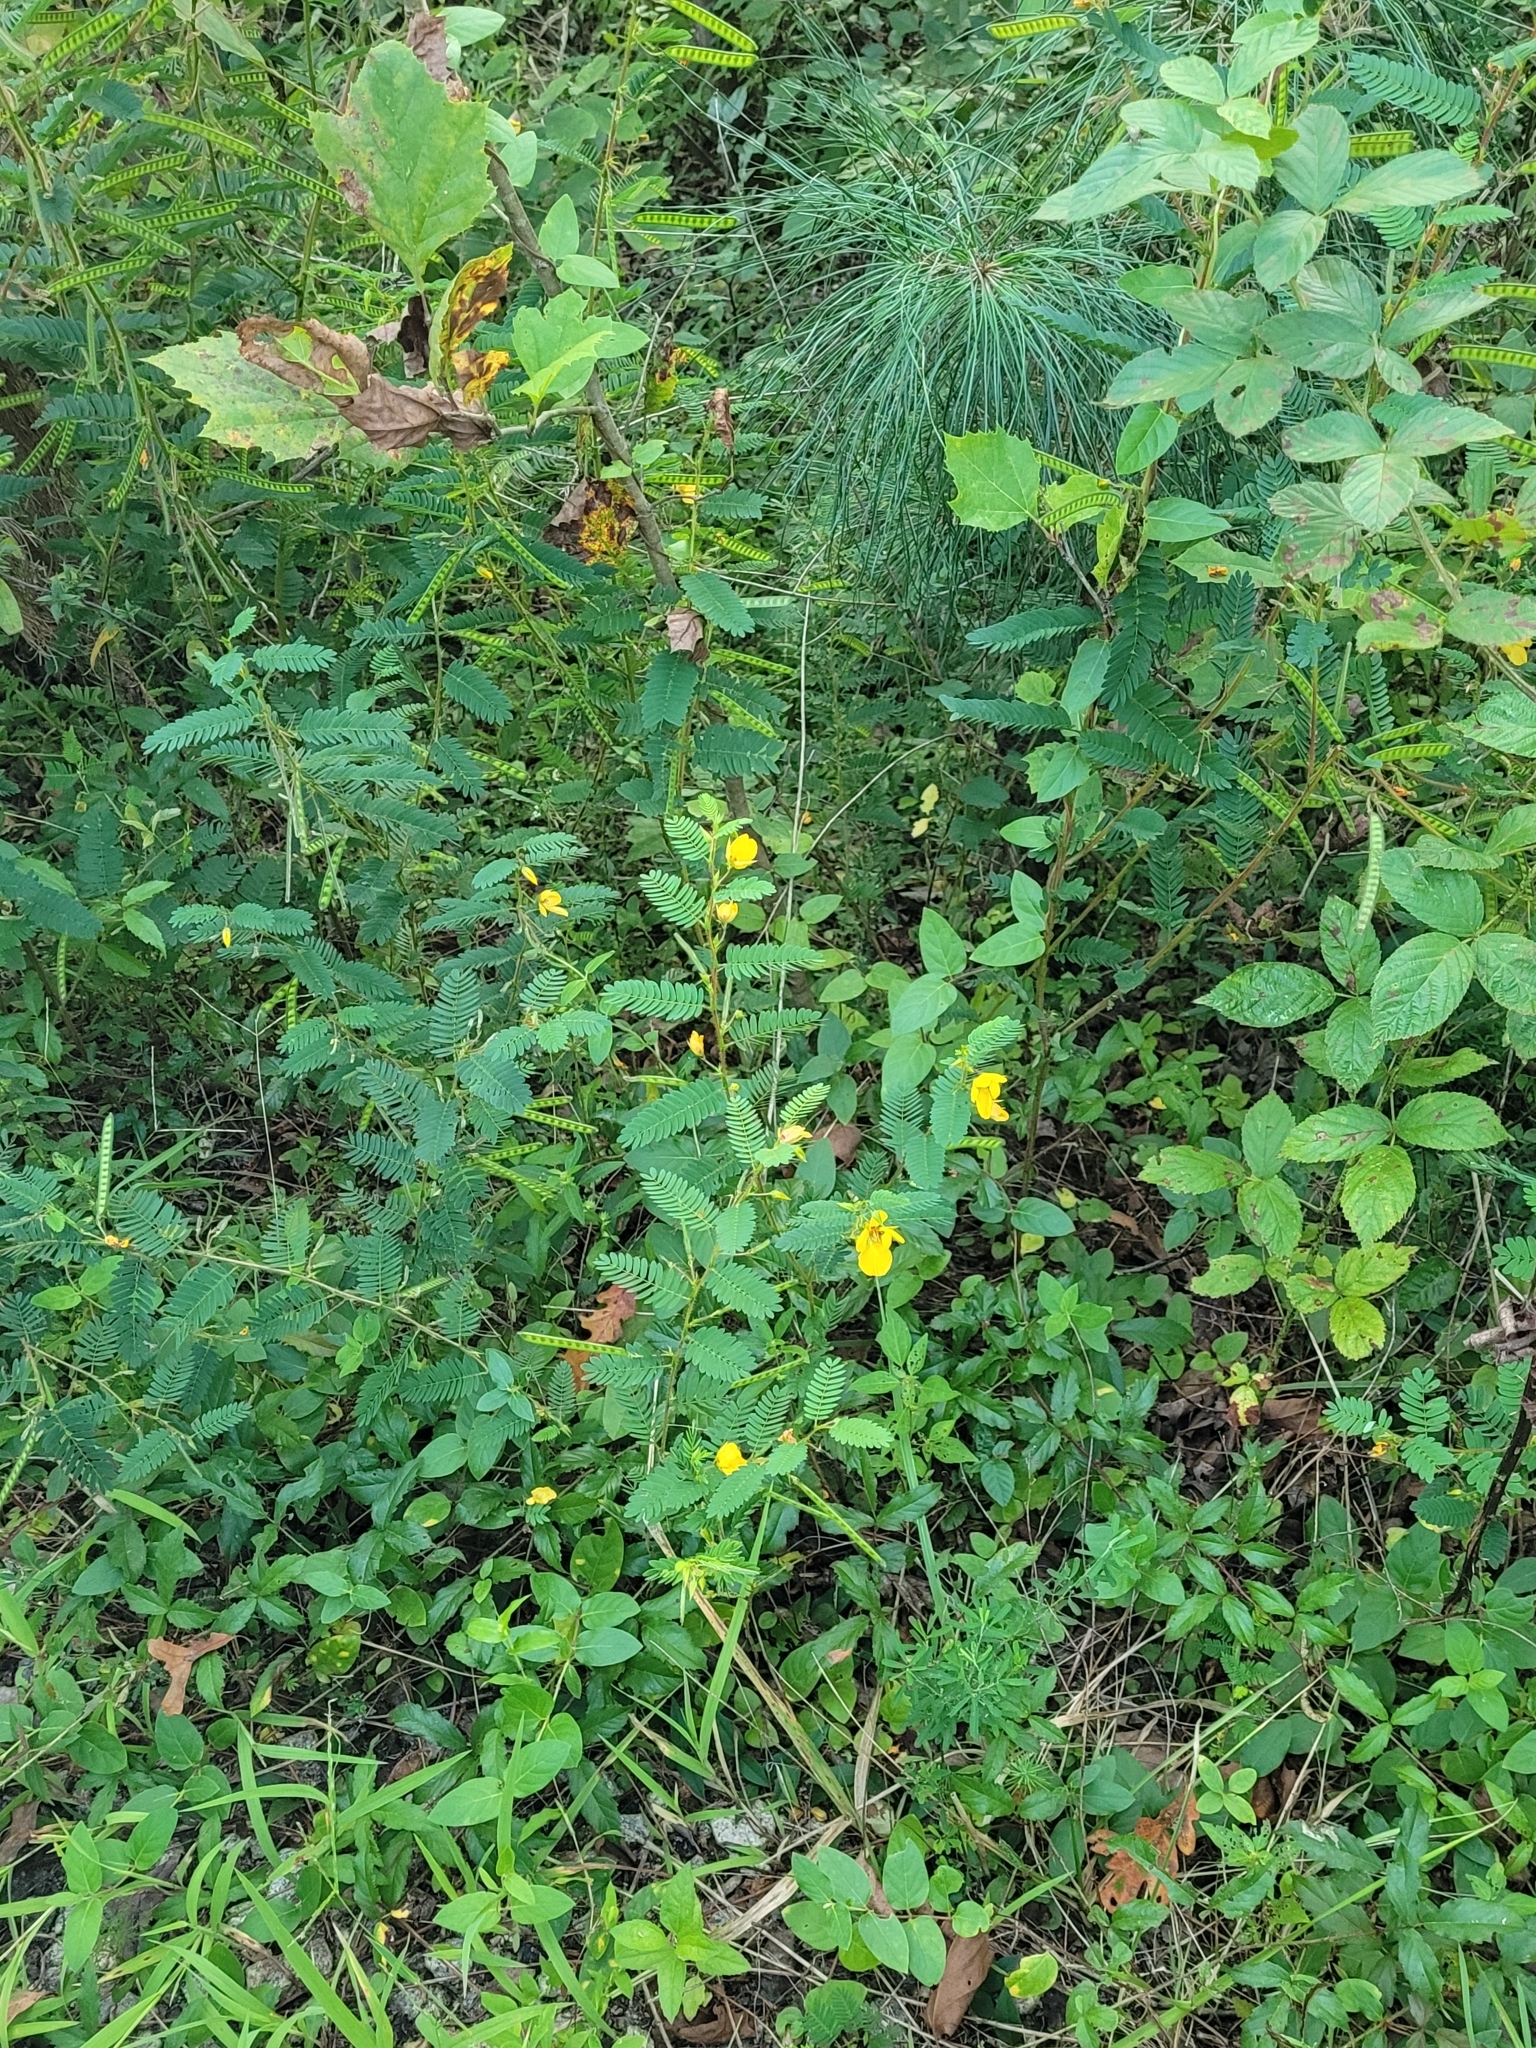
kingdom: Plantae
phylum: Tracheophyta
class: Magnoliopsida
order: Fabales
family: Fabaceae
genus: Chamaecrista
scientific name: Chamaecrista fasciculata
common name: Golden cassia
